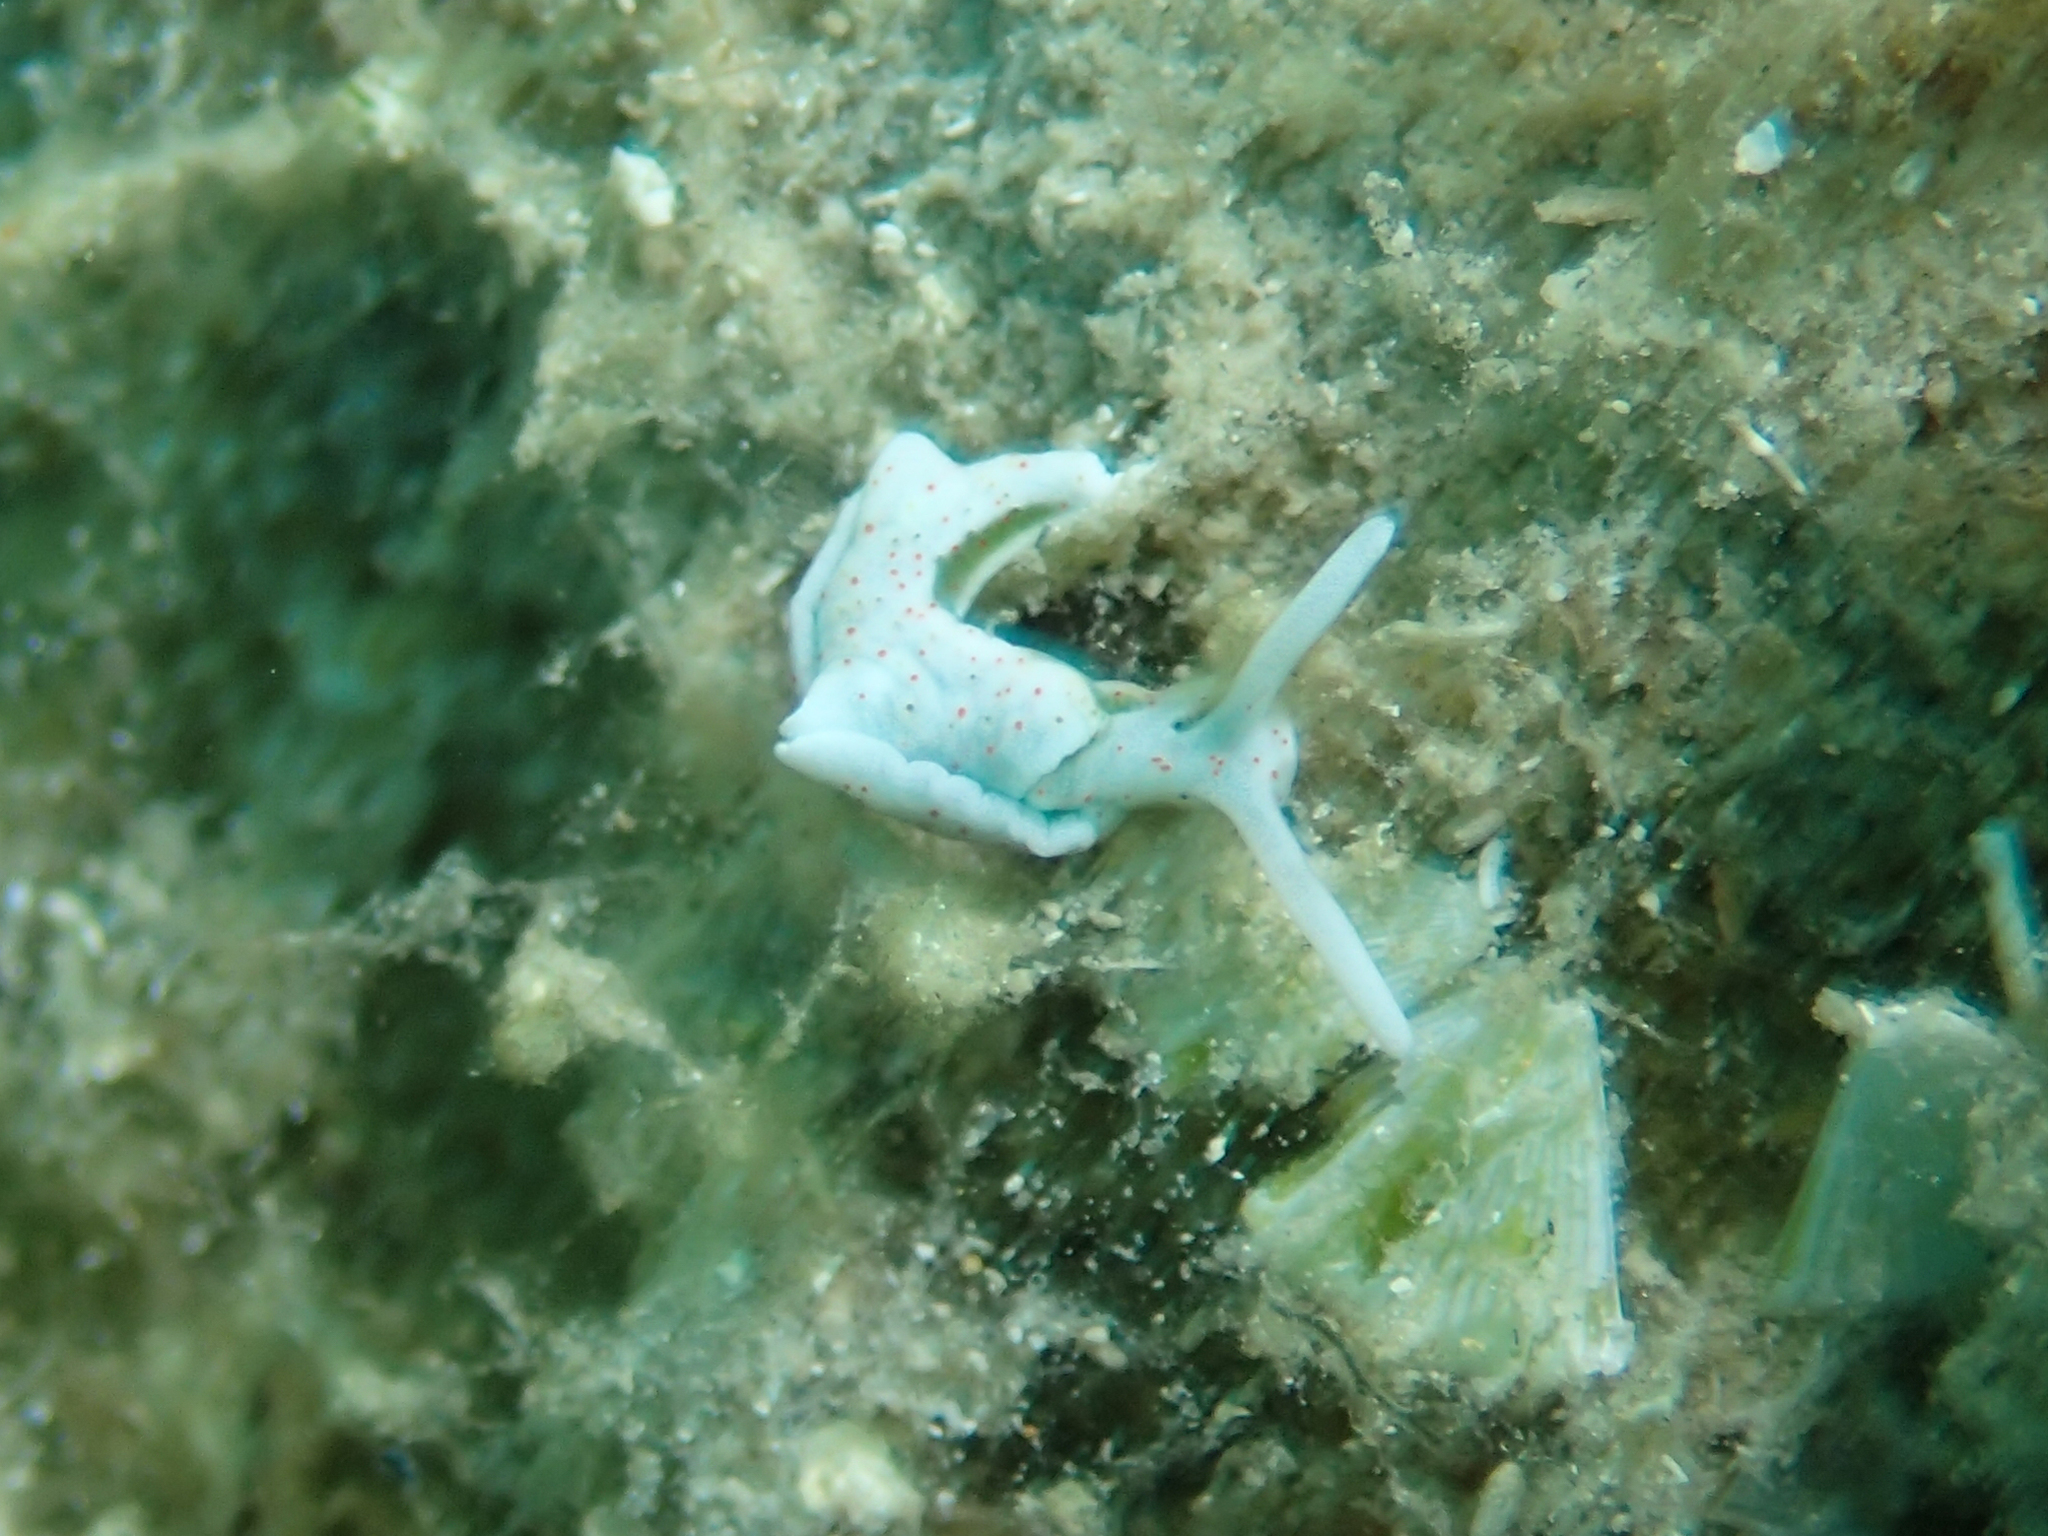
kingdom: Animalia
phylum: Mollusca
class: Gastropoda
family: Plakobranchidae
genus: Elysia
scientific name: Elysia timida
